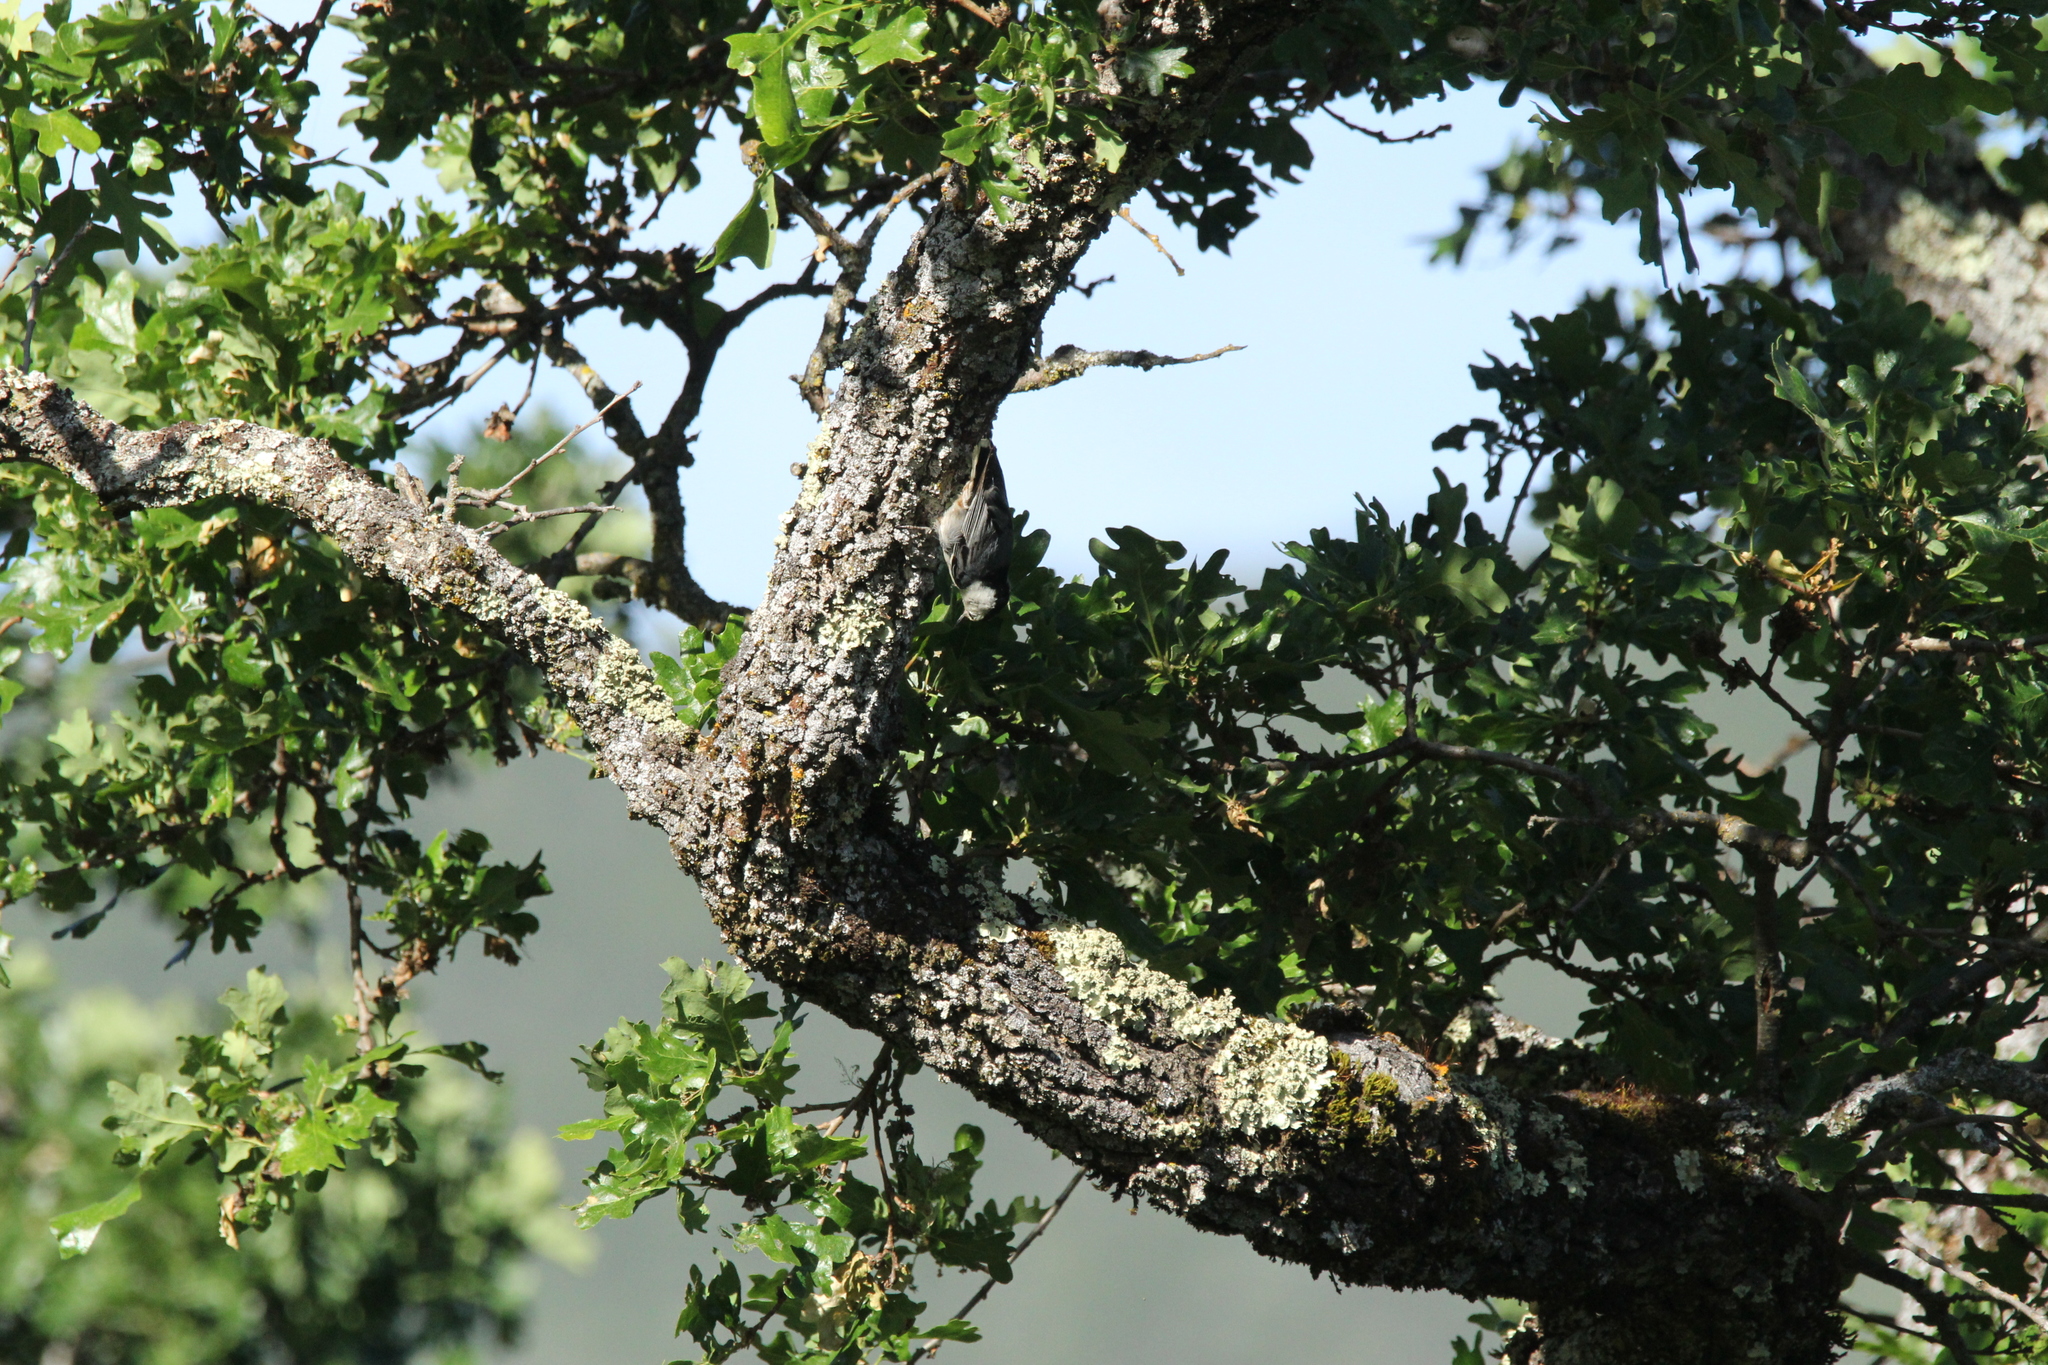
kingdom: Animalia
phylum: Chordata
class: Aves
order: Passeriformes
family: Sittidae
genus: Sitta
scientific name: Sitta carolinensis
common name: White-breasted nuthatch
